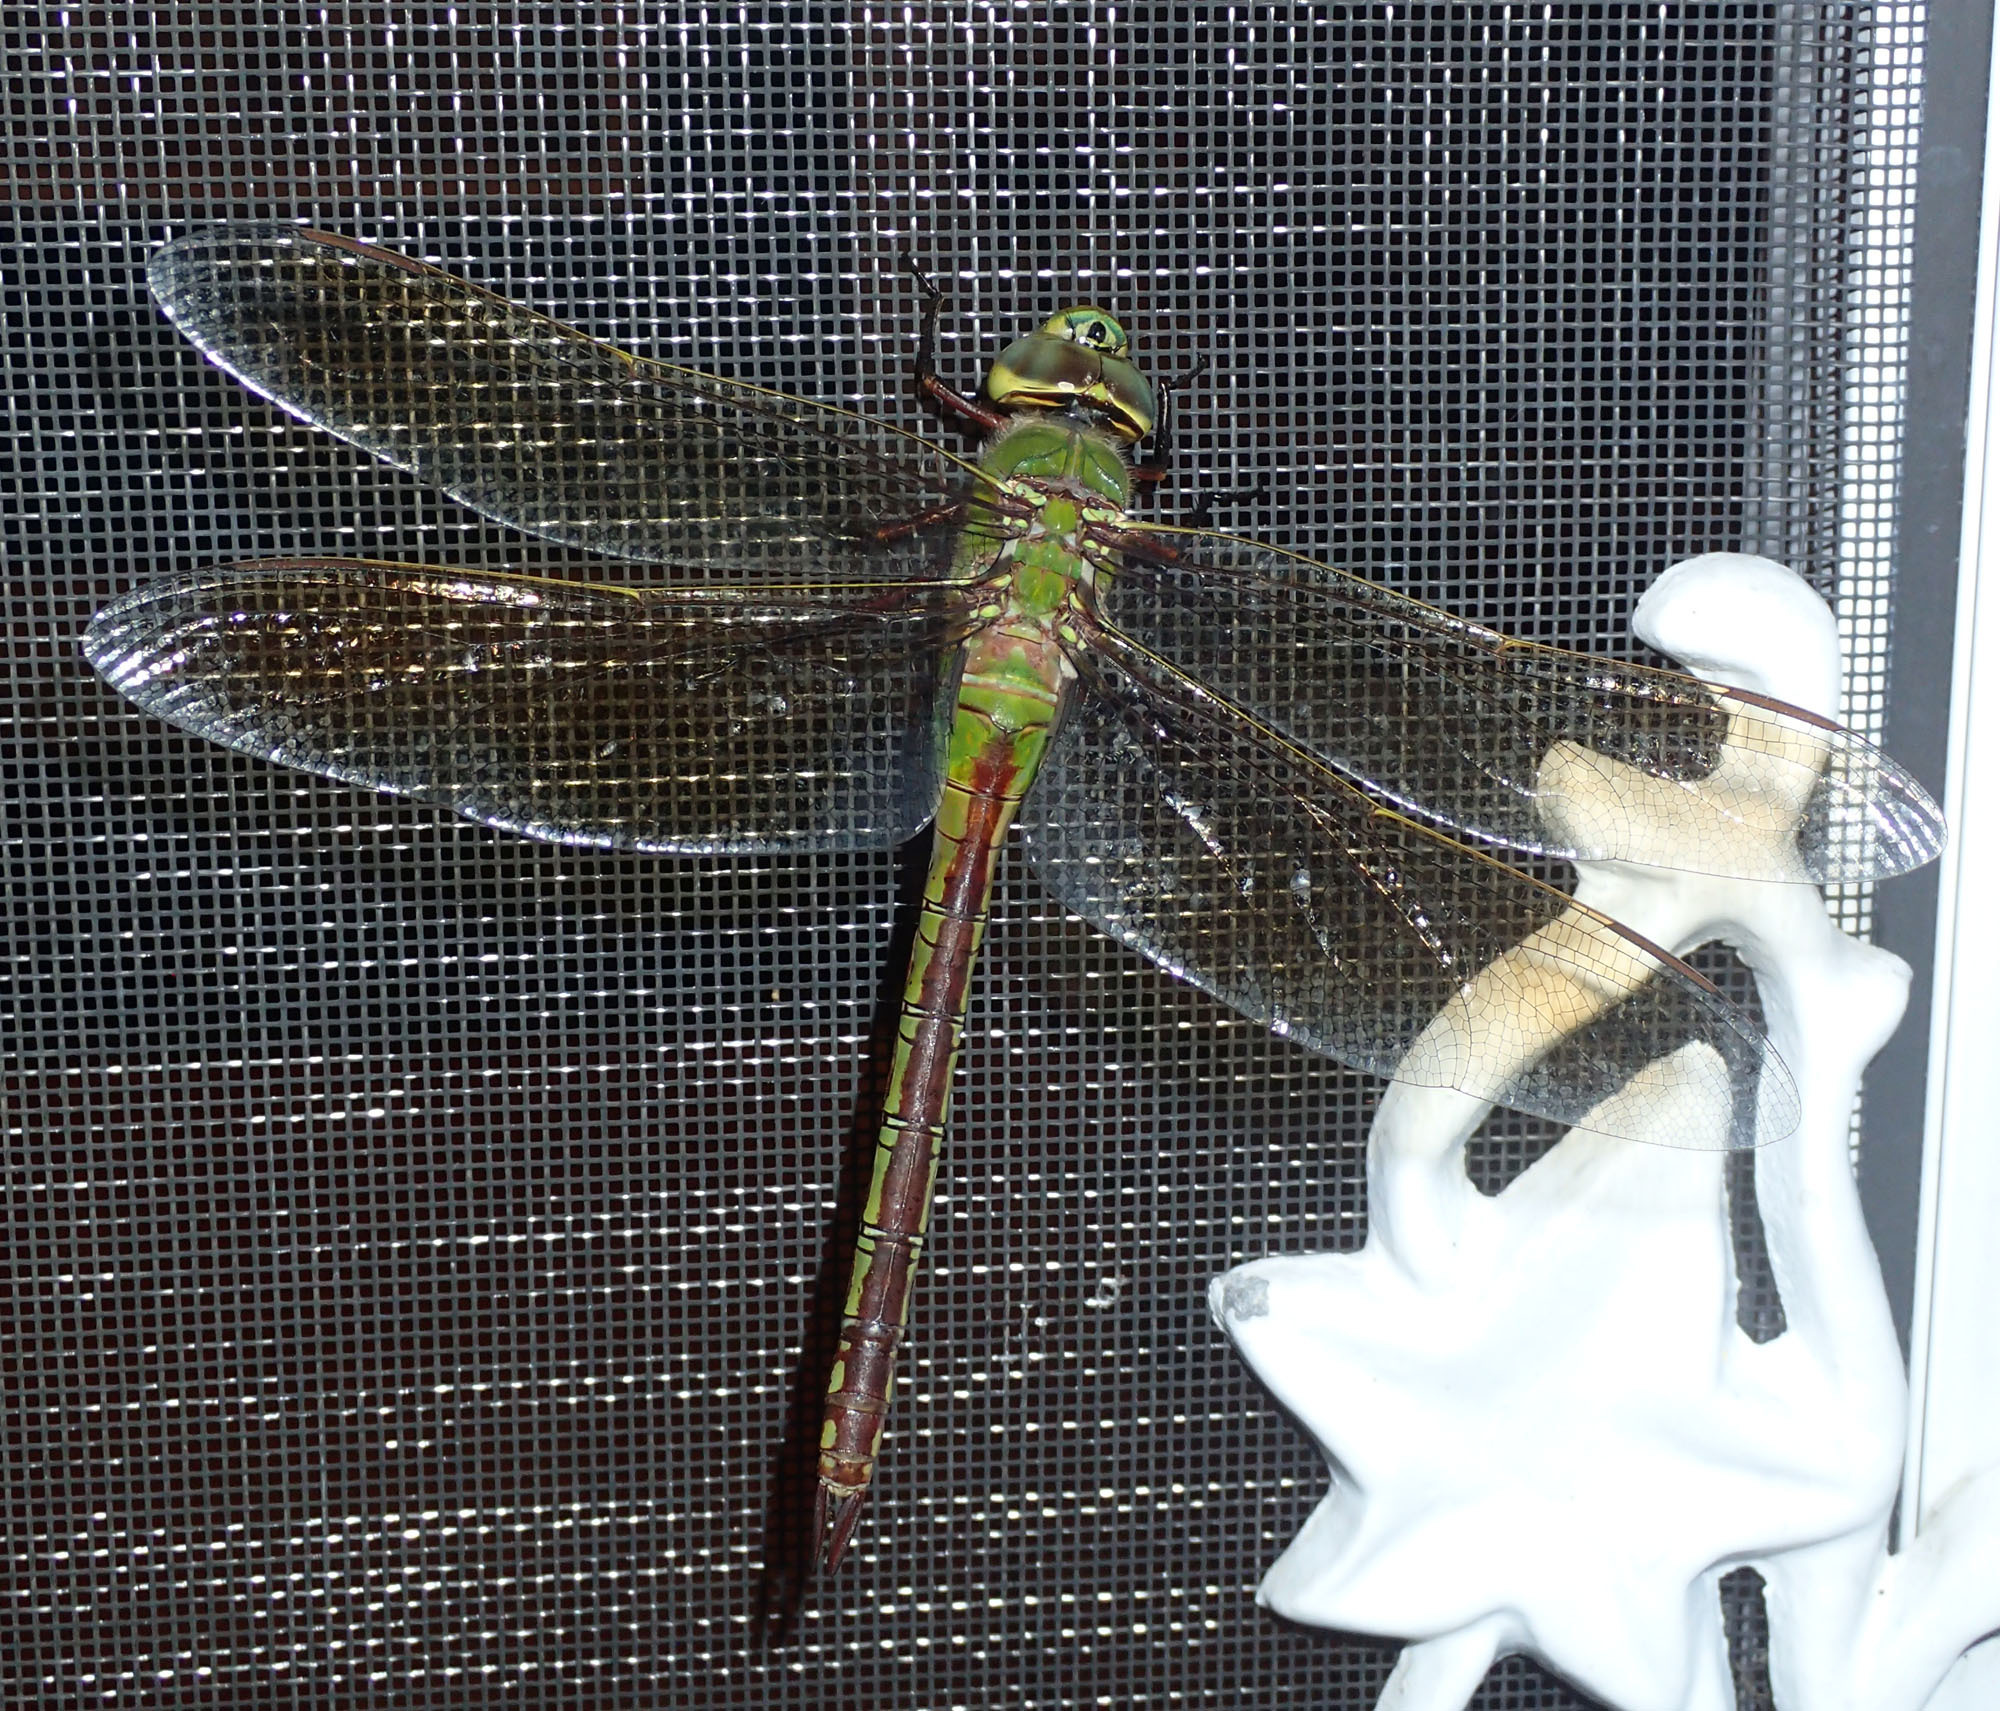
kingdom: Animalia
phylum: Arthropoda
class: Insecta
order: Odonata
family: Aeshnidae
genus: Anax
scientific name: Anax junius
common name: Common green darner
